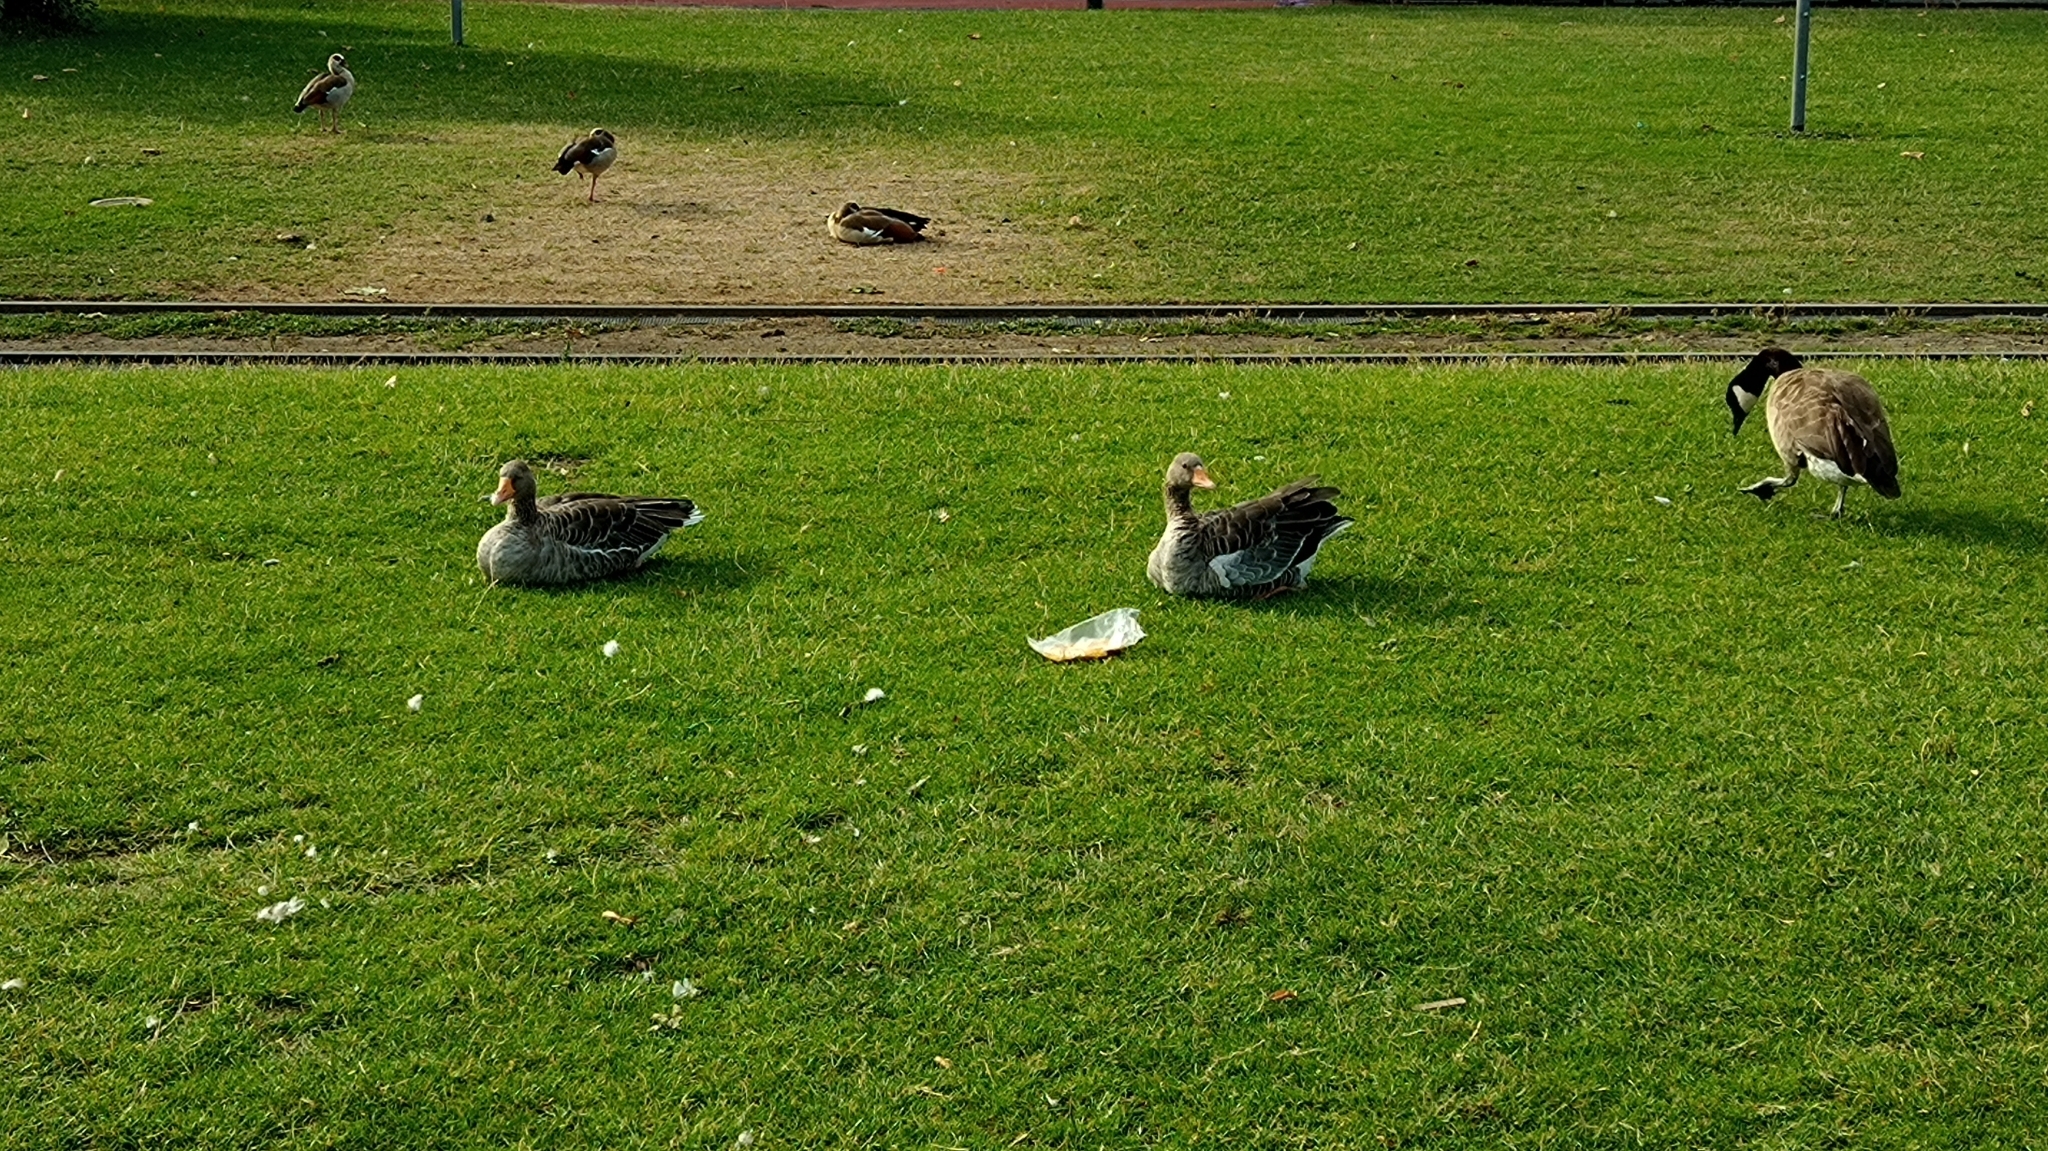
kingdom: Animalia
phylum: Chordata
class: Aves
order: Anseriformes
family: Anatidae
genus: Anser
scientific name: Anser anser
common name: Greylag goose
